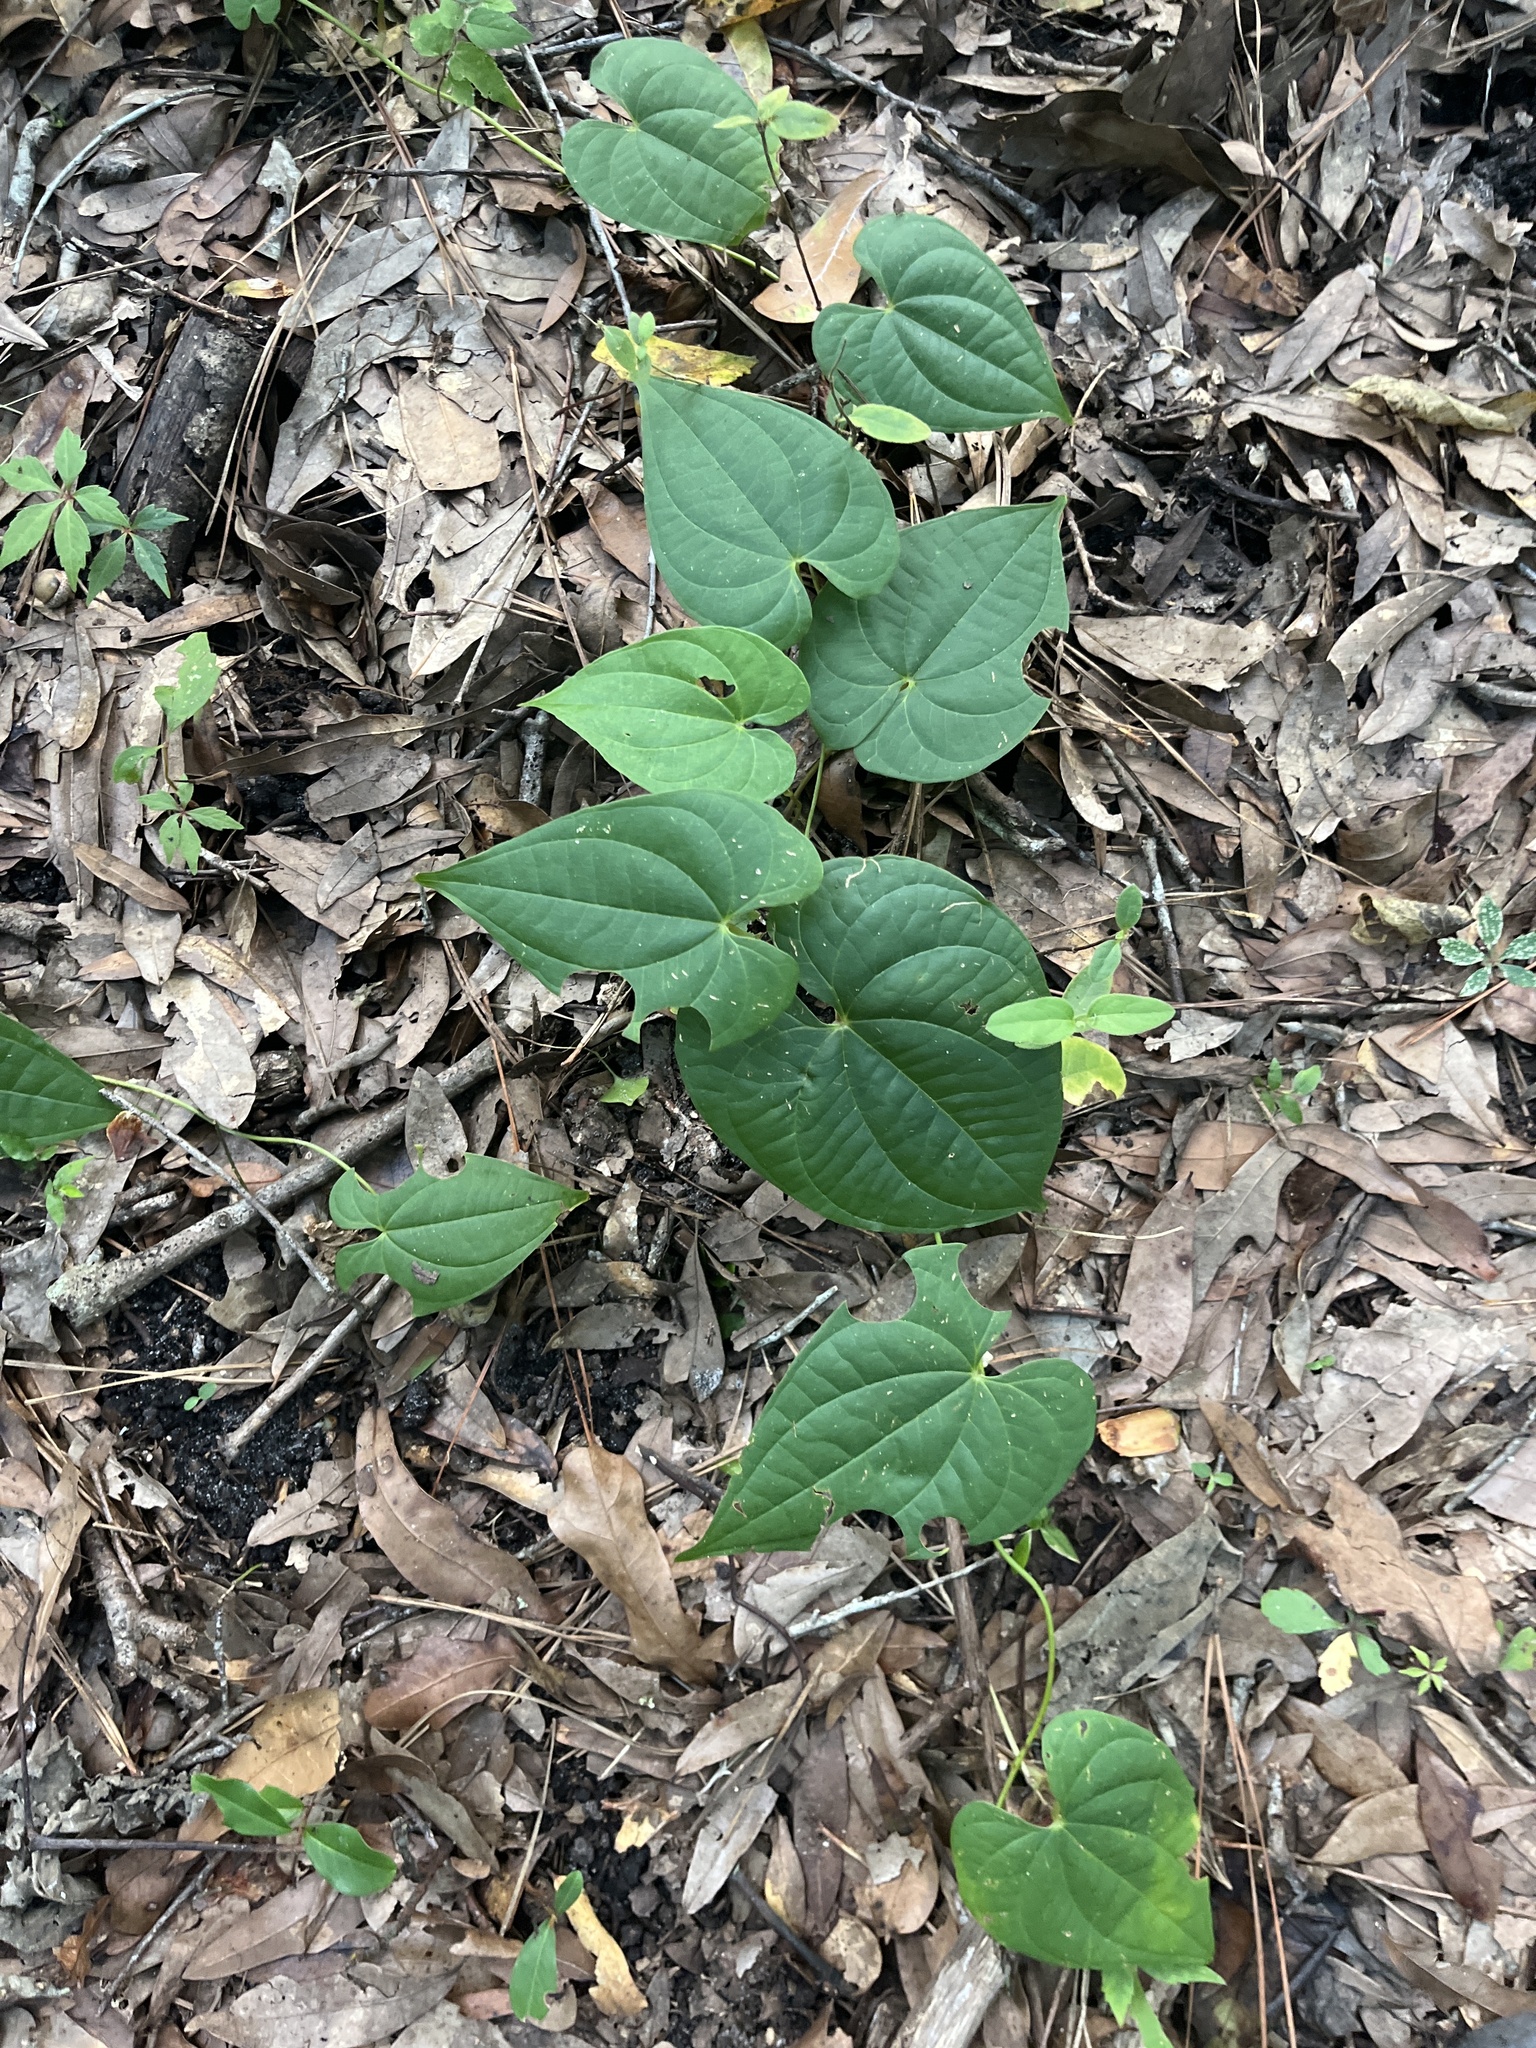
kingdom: Plantae
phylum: Tracheophyta
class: Liliopsida
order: Dioscoreales
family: Dioscoreaceae
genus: Dioscorea
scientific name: Dioscorea bulbifera
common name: Air yam
